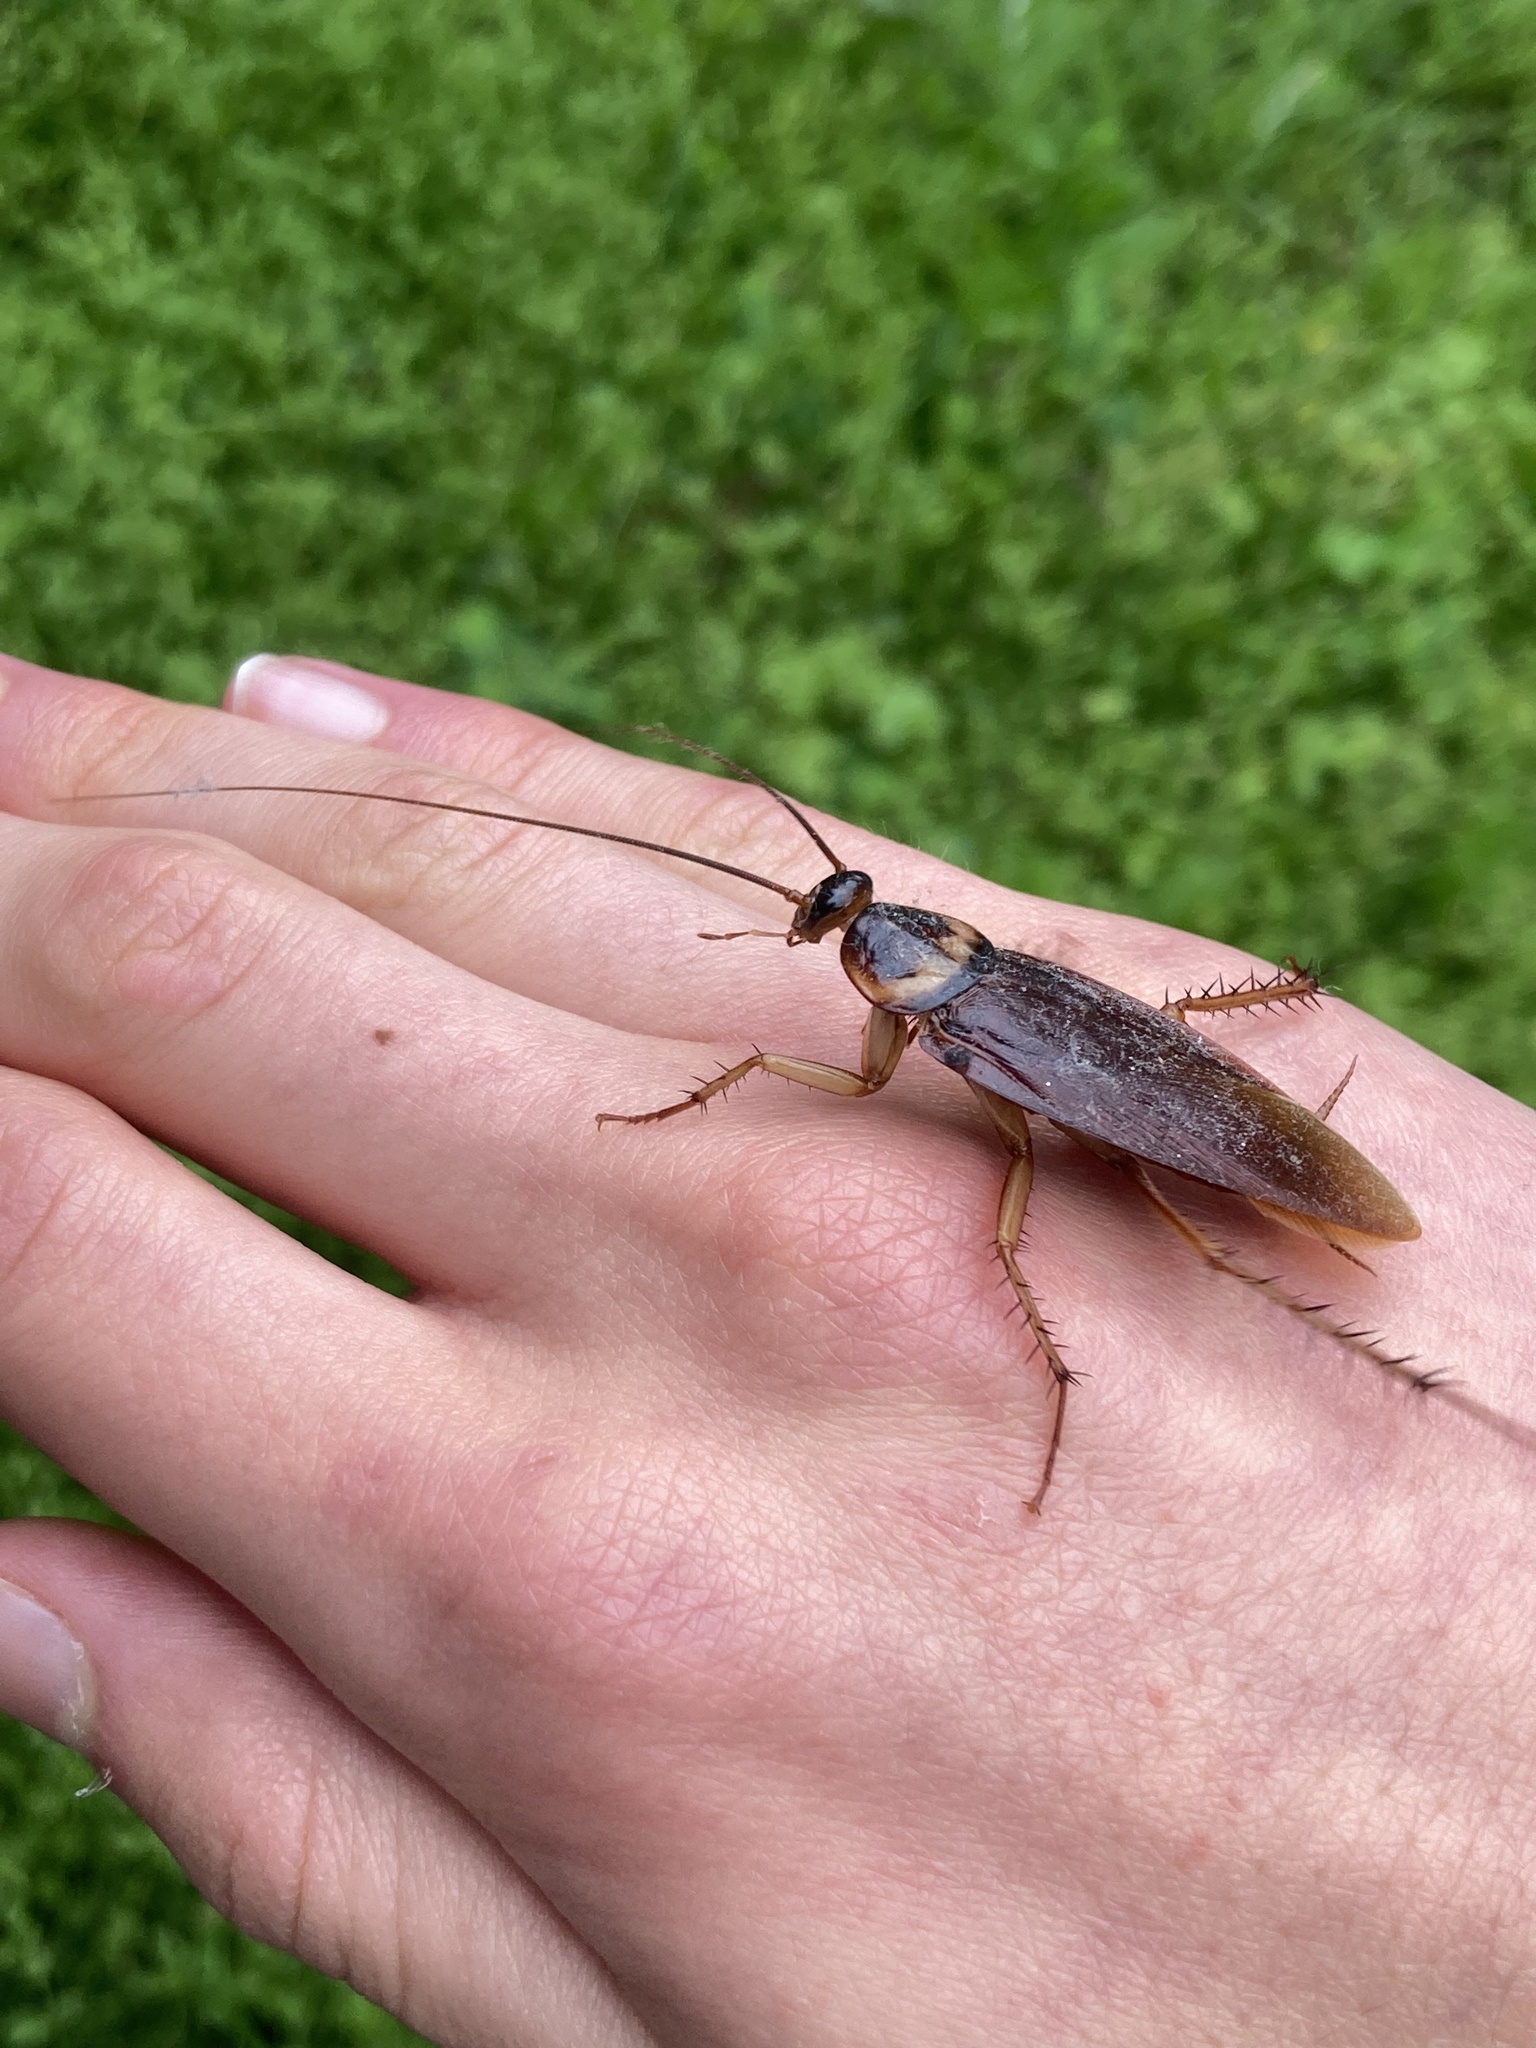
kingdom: Animalia
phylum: Arthropoda
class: Insecta
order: Blattodea
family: Blattidae
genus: Periplaneta
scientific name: Periplaneta americana
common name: American cockroach
